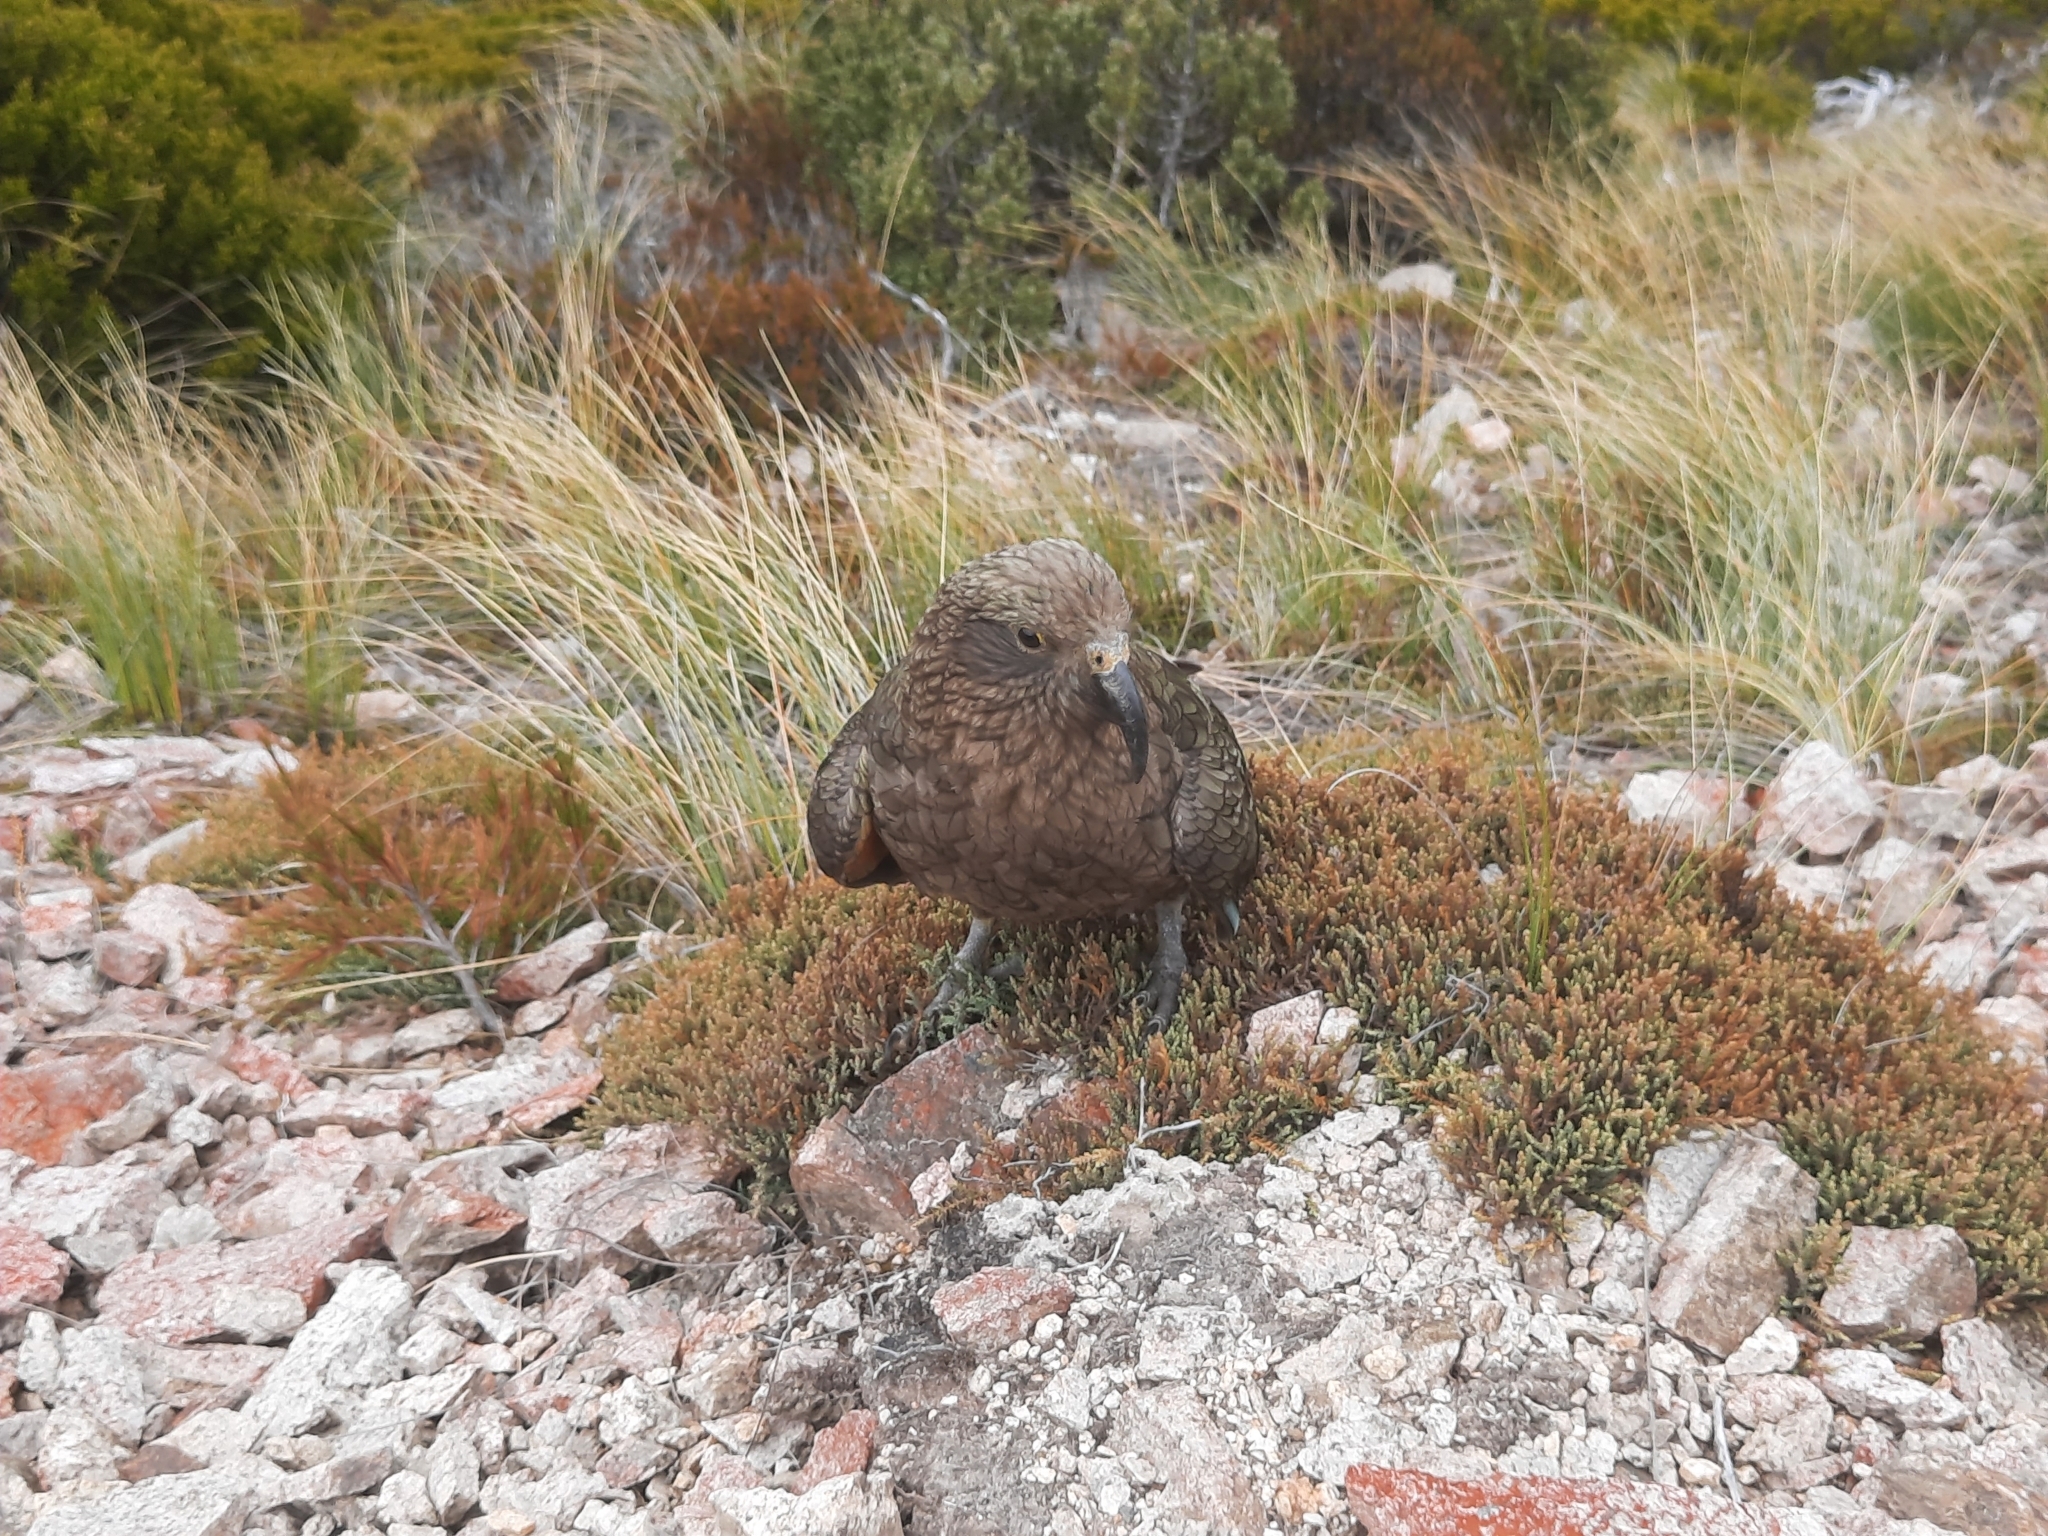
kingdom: Animalia
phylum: Chordata
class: Aves
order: Psittaciformes
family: Psittacidae
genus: Nestor
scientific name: Nestor notabilis
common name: Kea
